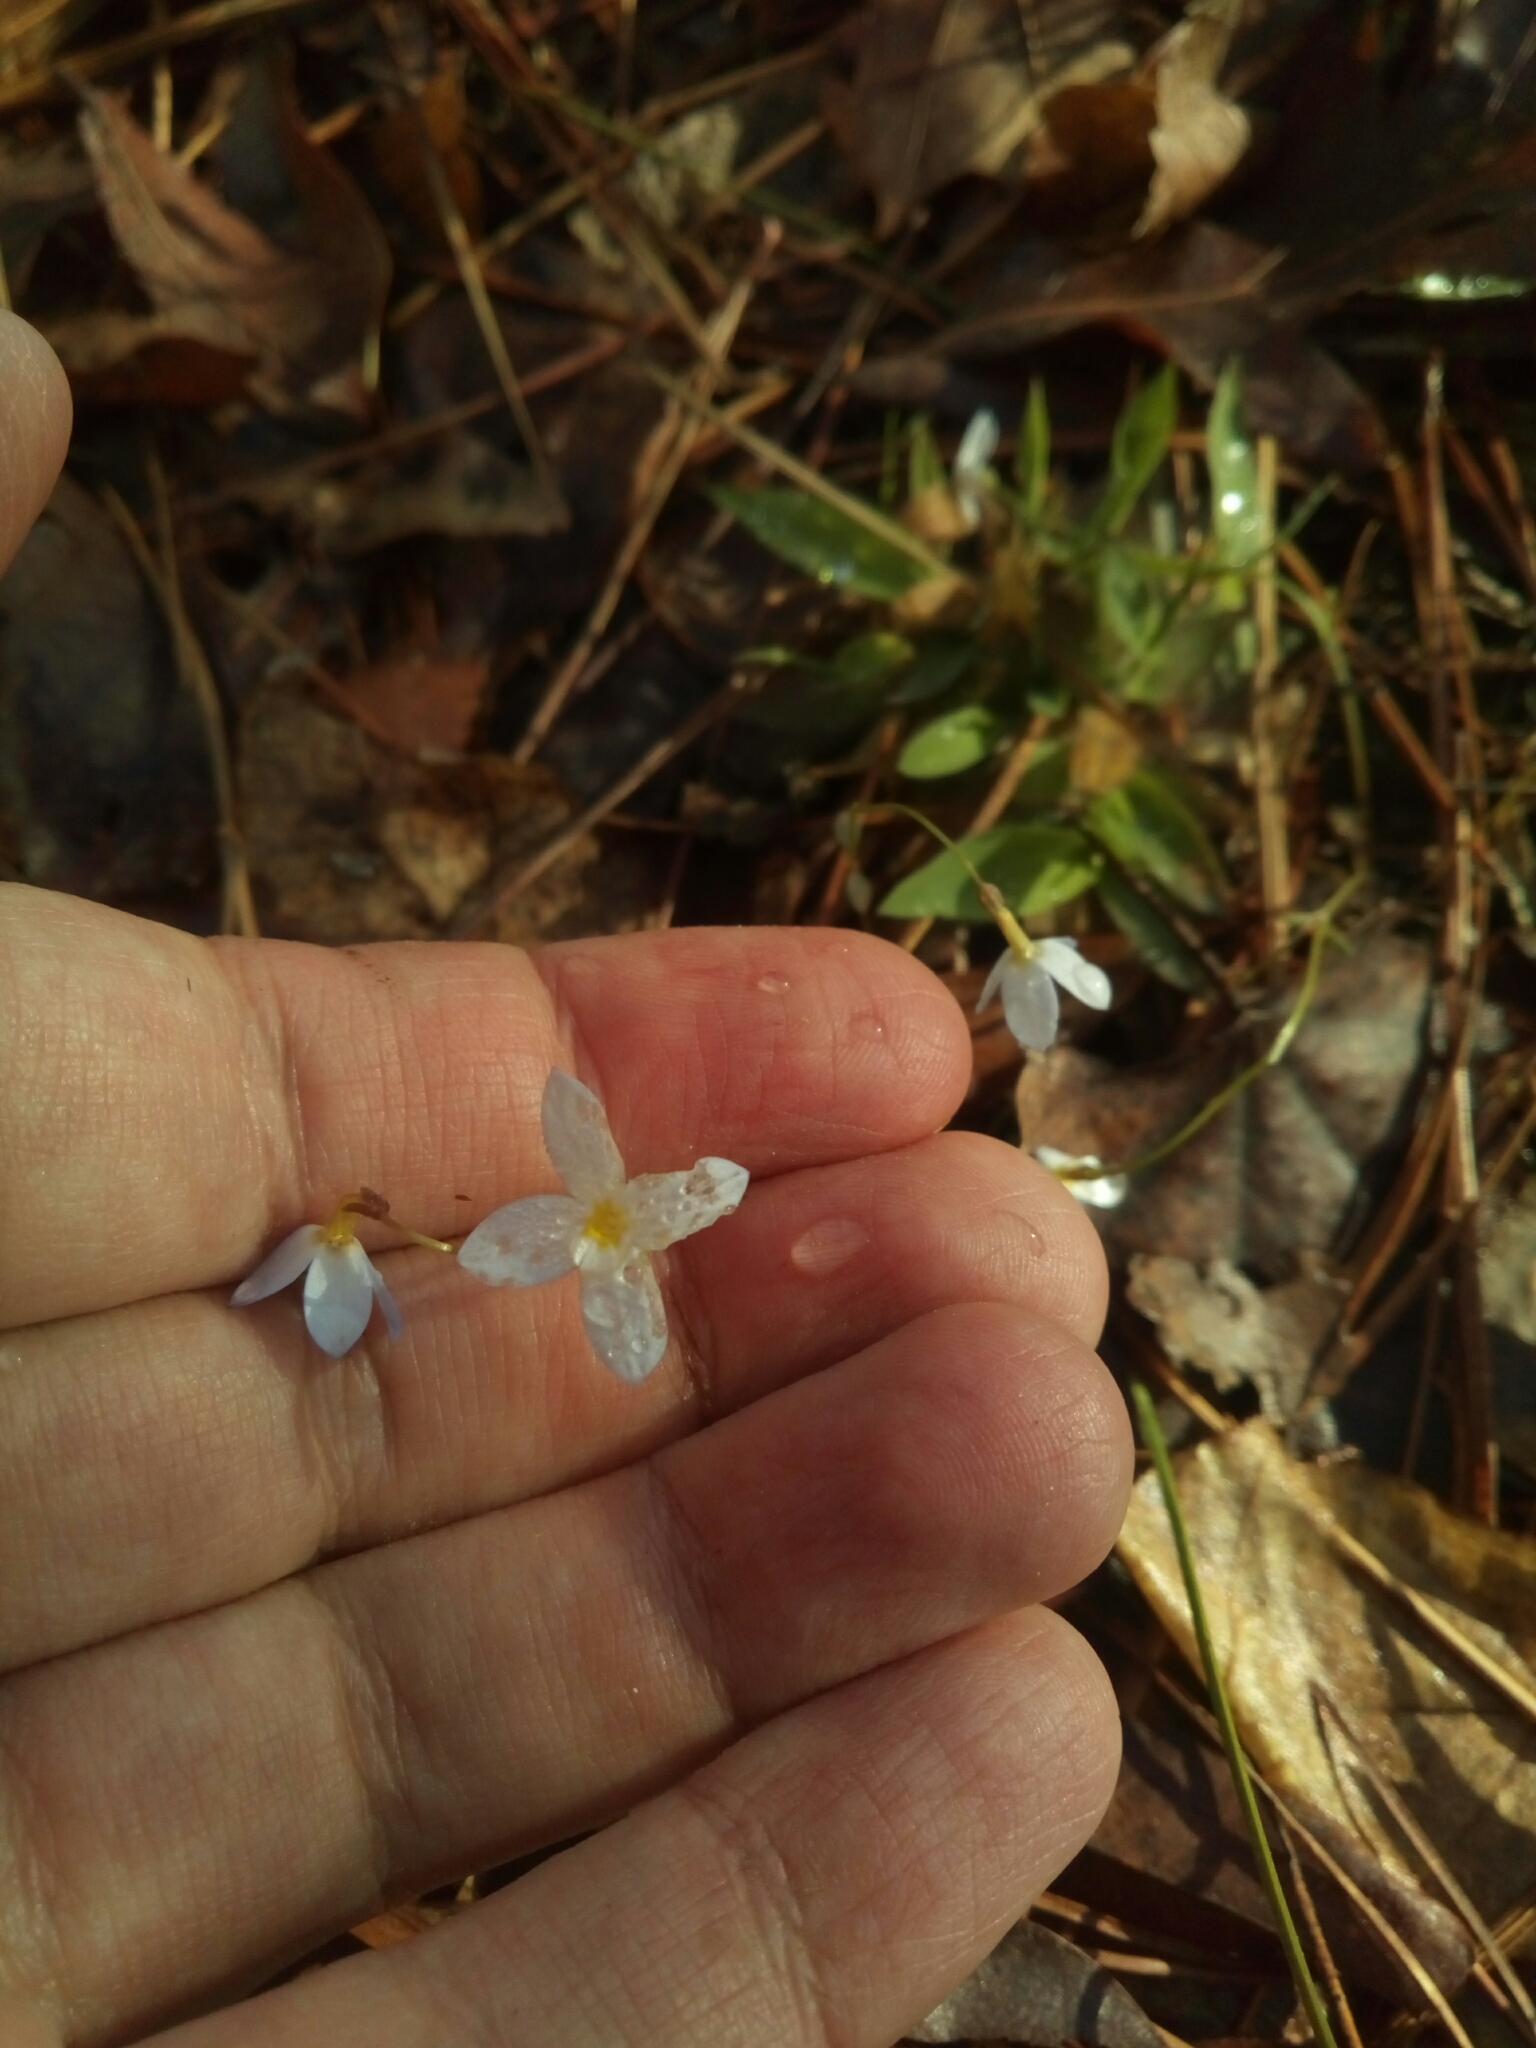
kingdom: Plantae
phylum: Tracheophyta
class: Magnoliopsida
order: Gentianales
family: Rubiaceae
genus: Houstonia
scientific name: Houstonia caerulea
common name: Bluets
